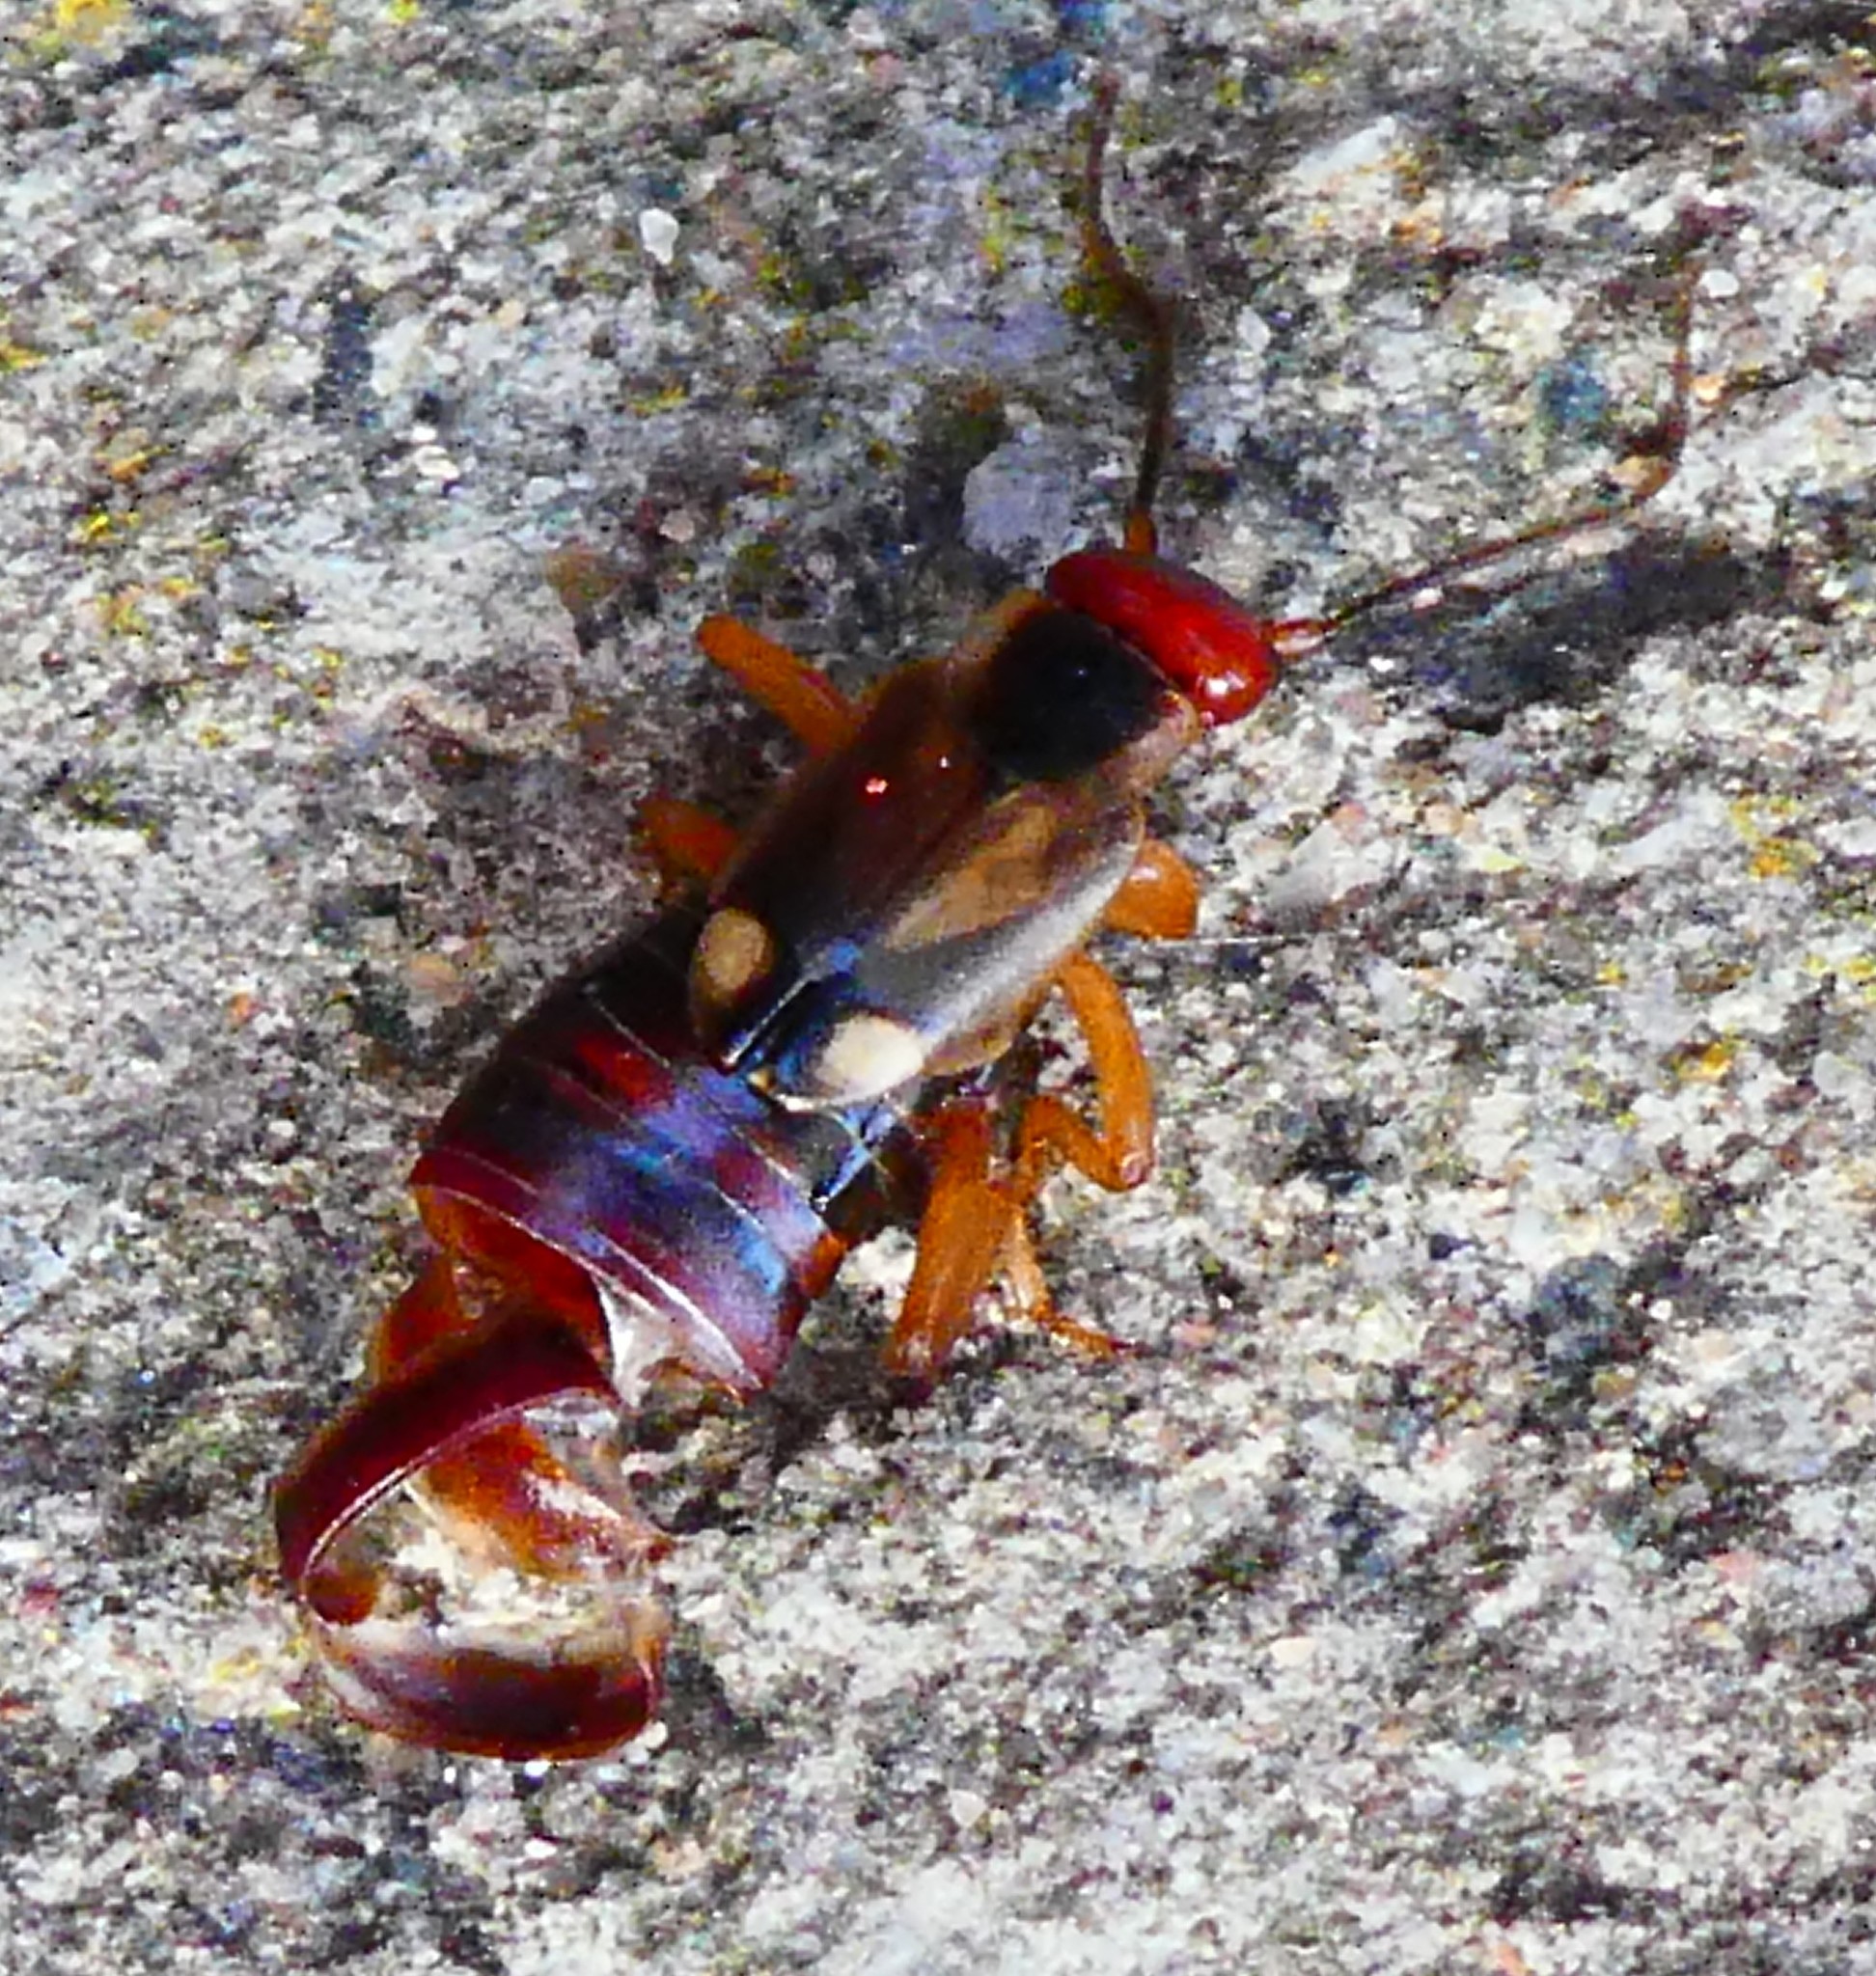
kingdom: Animalia
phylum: Arthropoda
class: Insecta
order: Dermaptera
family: Forficulidae
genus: Forficula
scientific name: Forficula
